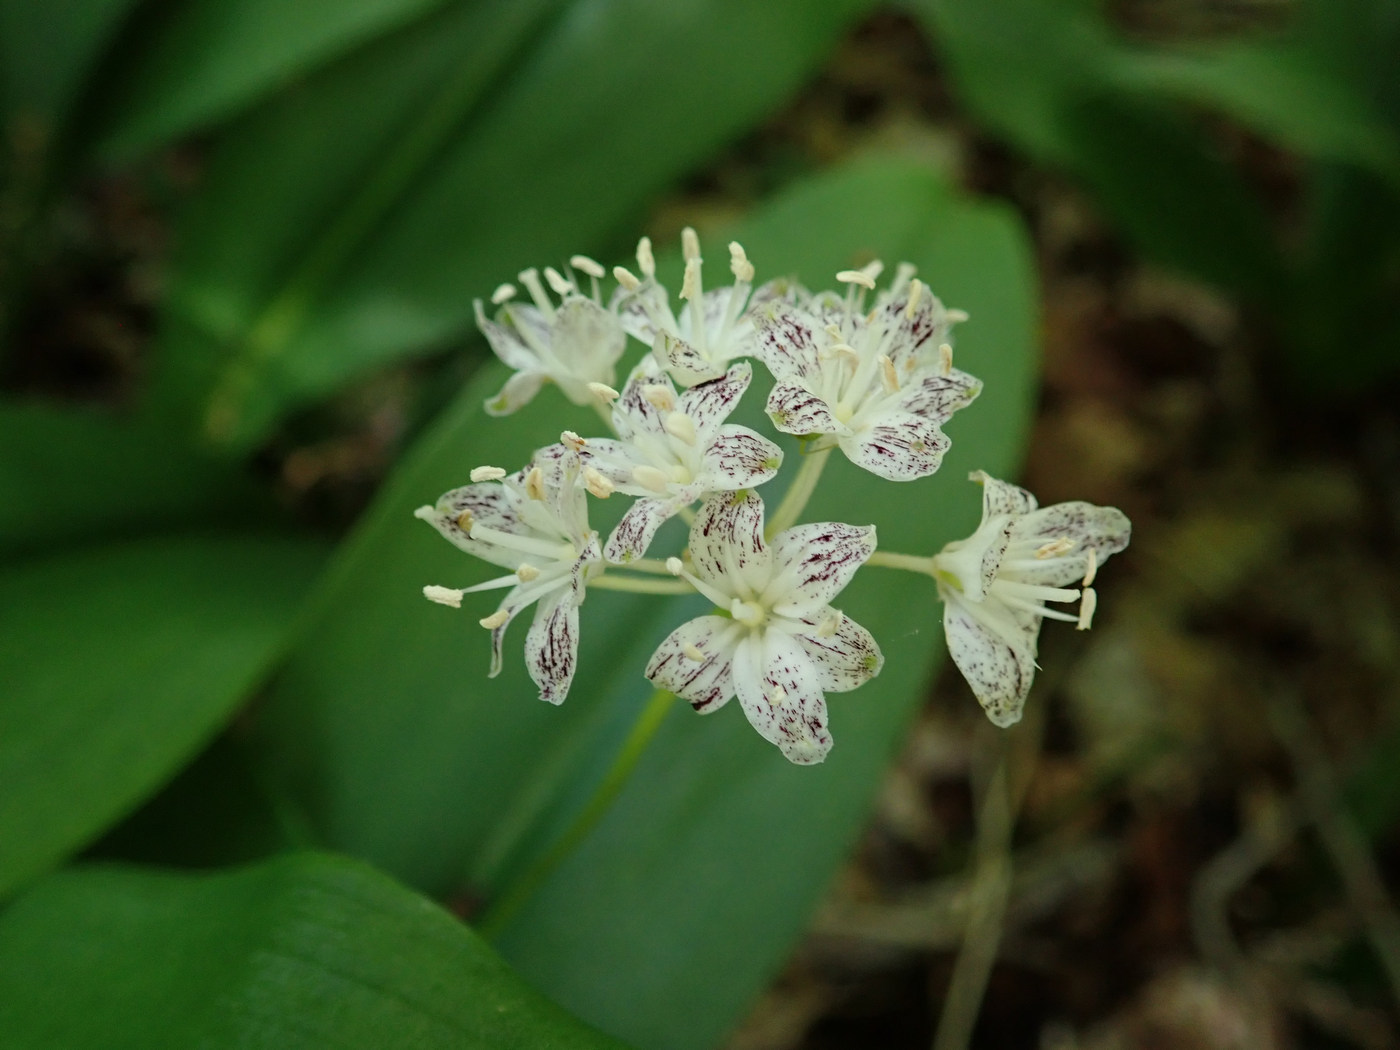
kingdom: Plantae
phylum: Tracheophyta
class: Liliopsida
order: Liliales
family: Liliaceae
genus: Clintonia
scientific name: Clintonia umbellulata
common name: Speckle wood-lily
